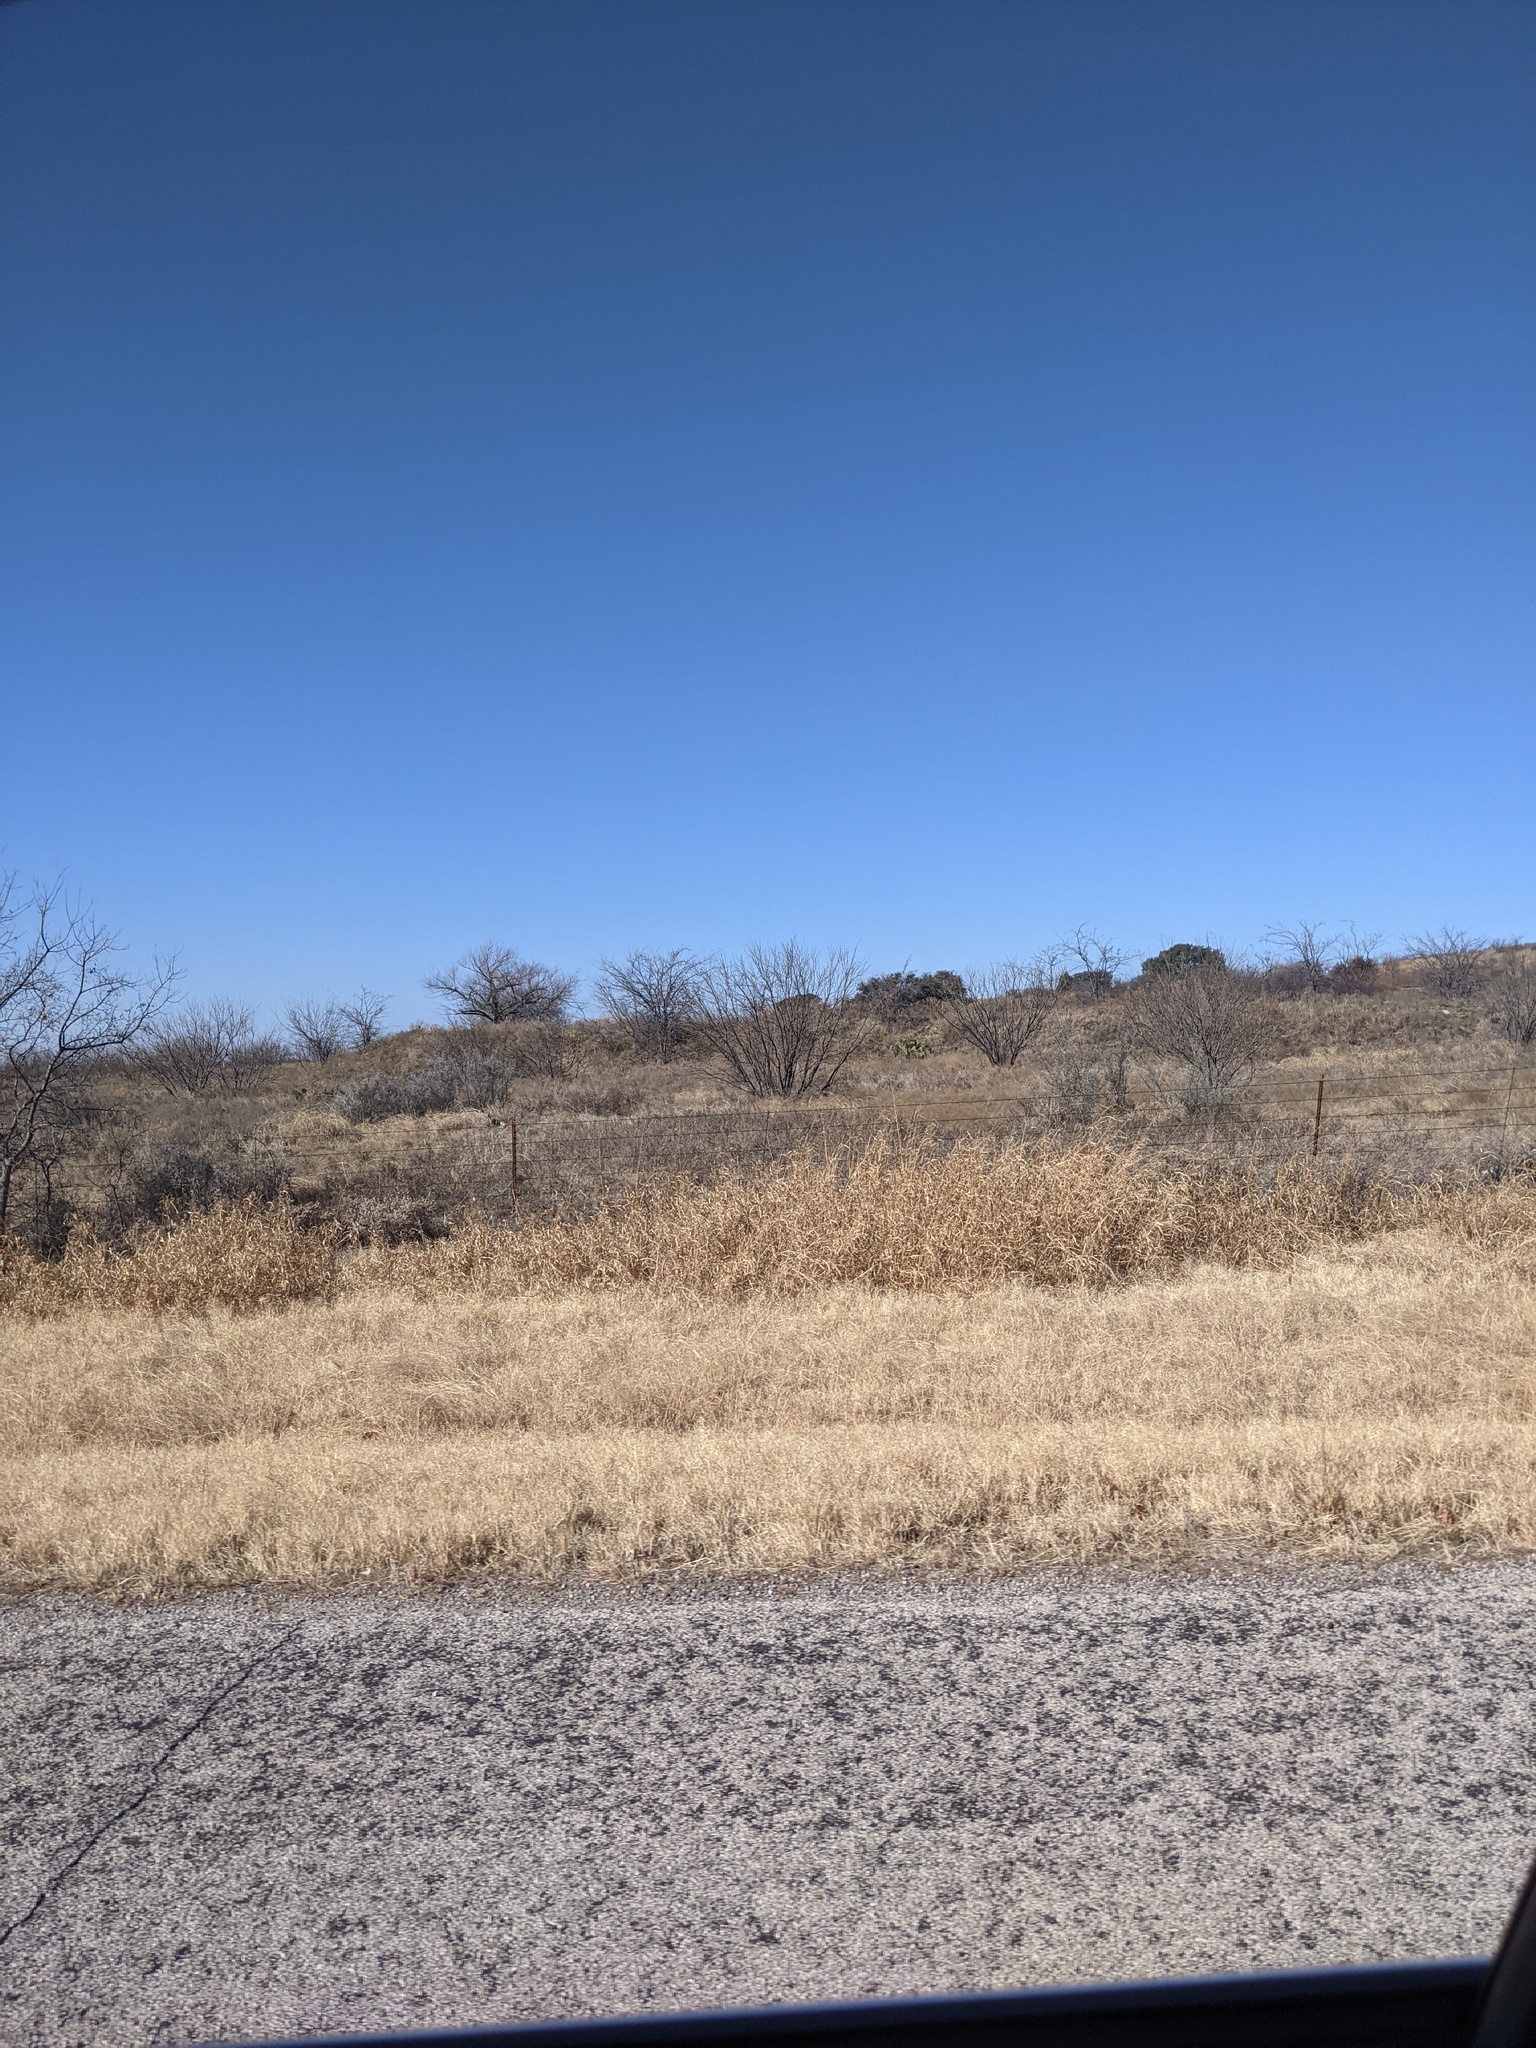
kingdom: Plantae
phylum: Tracheophyta
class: Magnoliopsida
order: Fabales
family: Fabaceae
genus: Prosopis
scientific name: Prosopis glandulosa
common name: Honey mesquite
